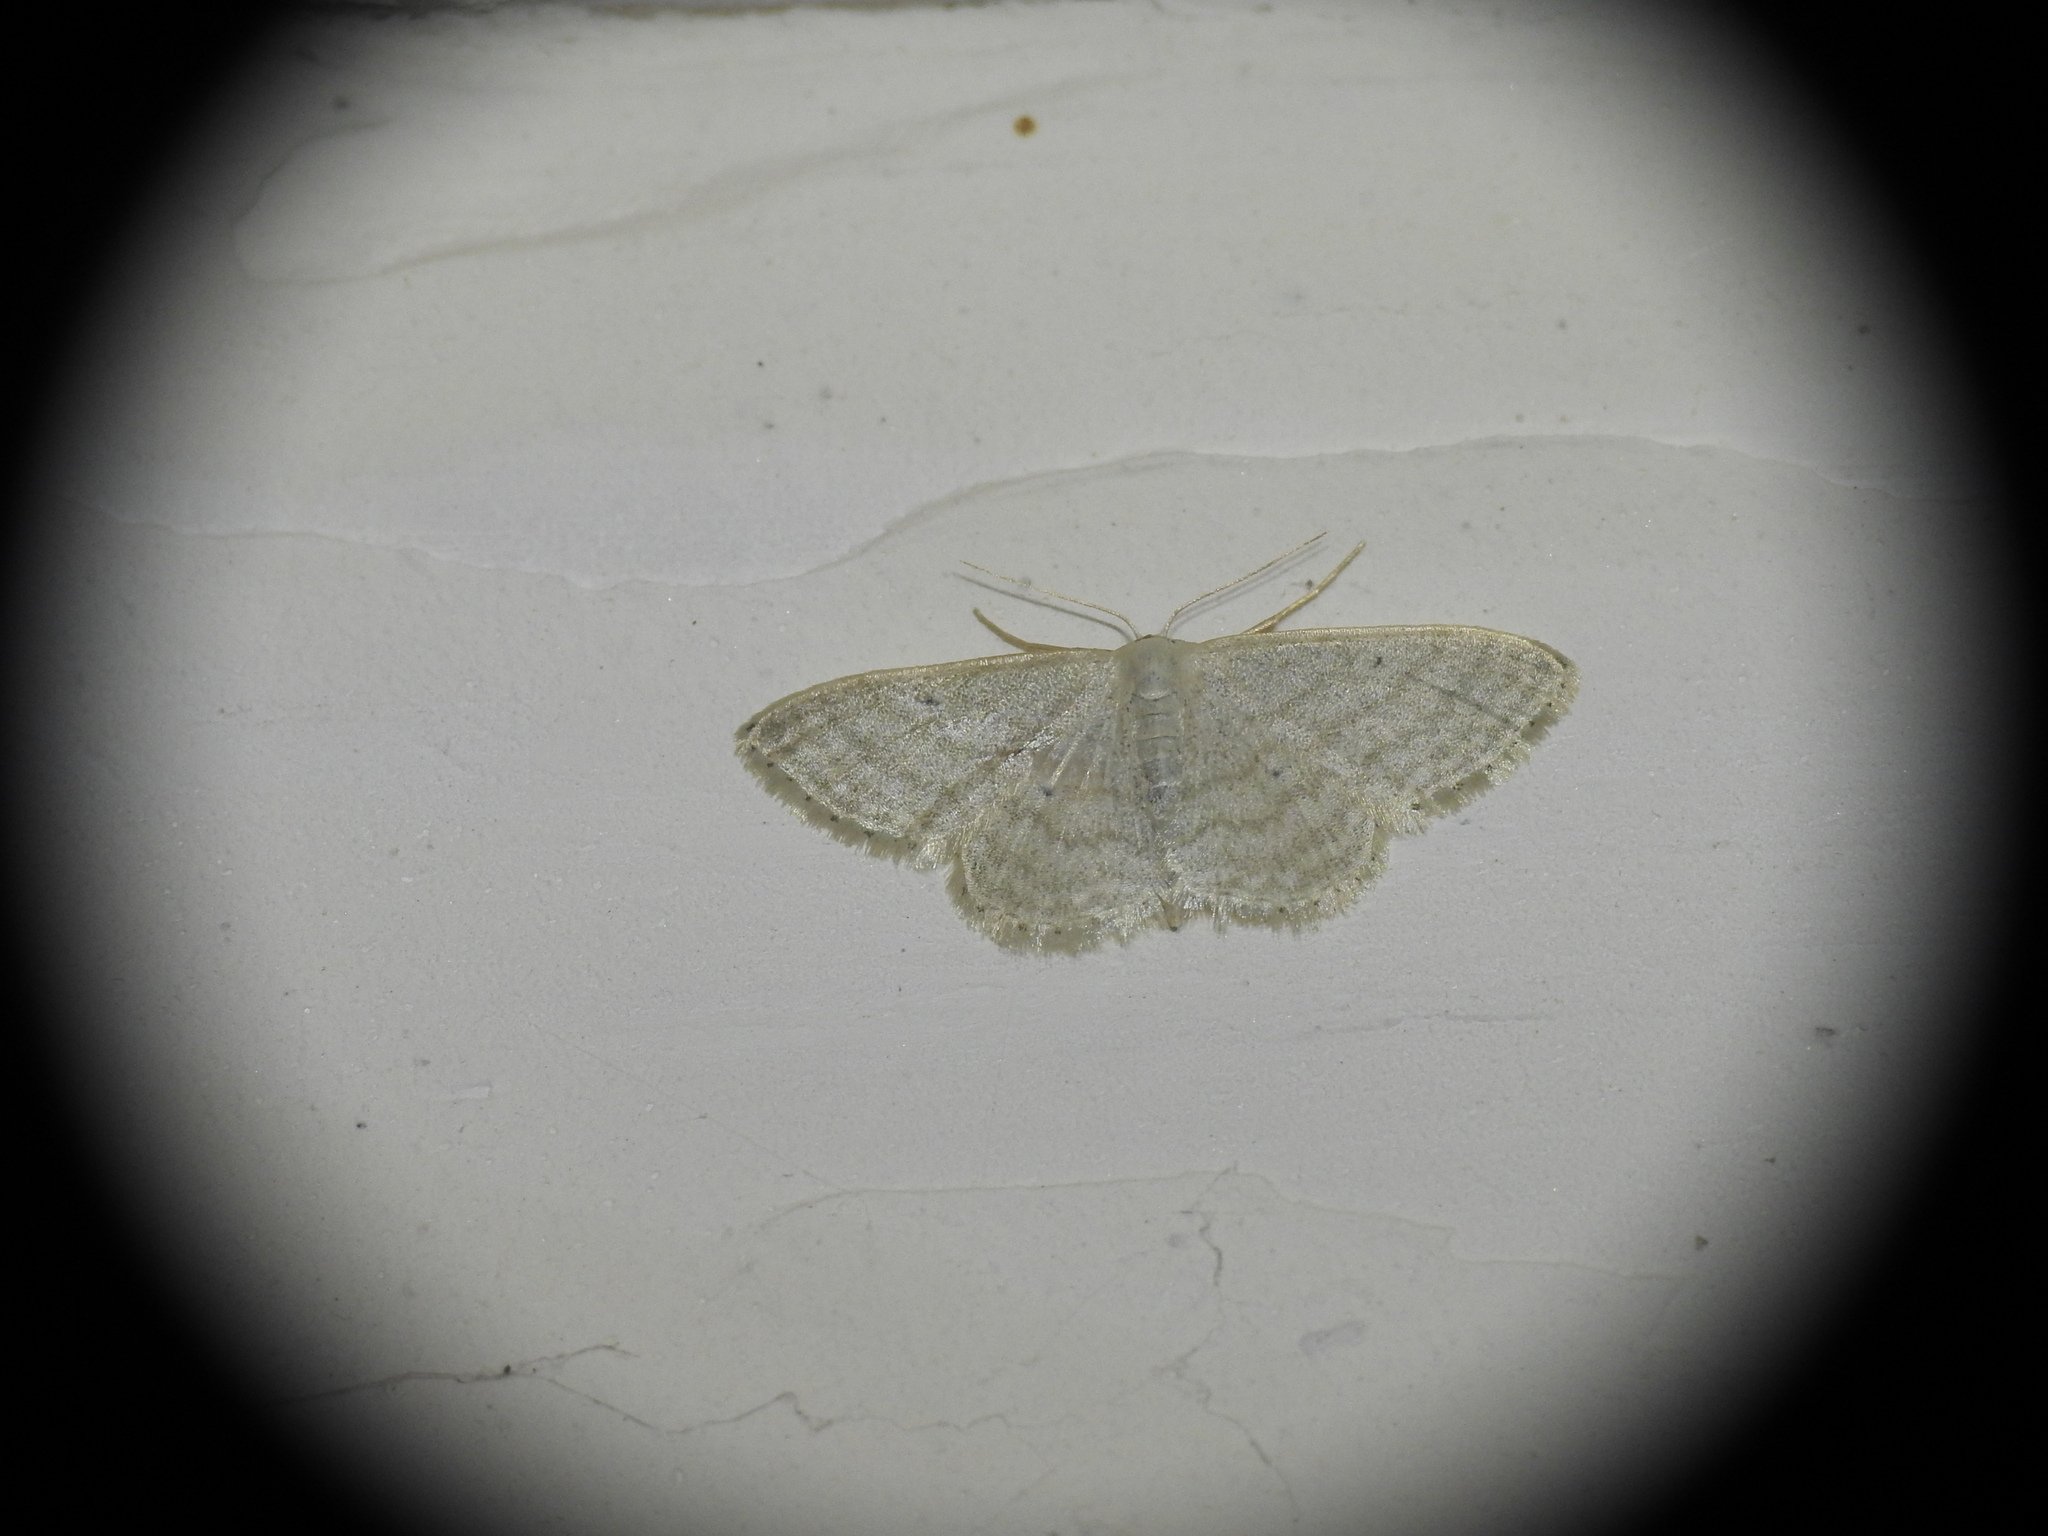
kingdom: Animalia
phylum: Arthropoda
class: Insecta
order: Lepidoptera
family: Geometridae
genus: Idaea
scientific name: Idaea subsericeata
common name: Satin wave
